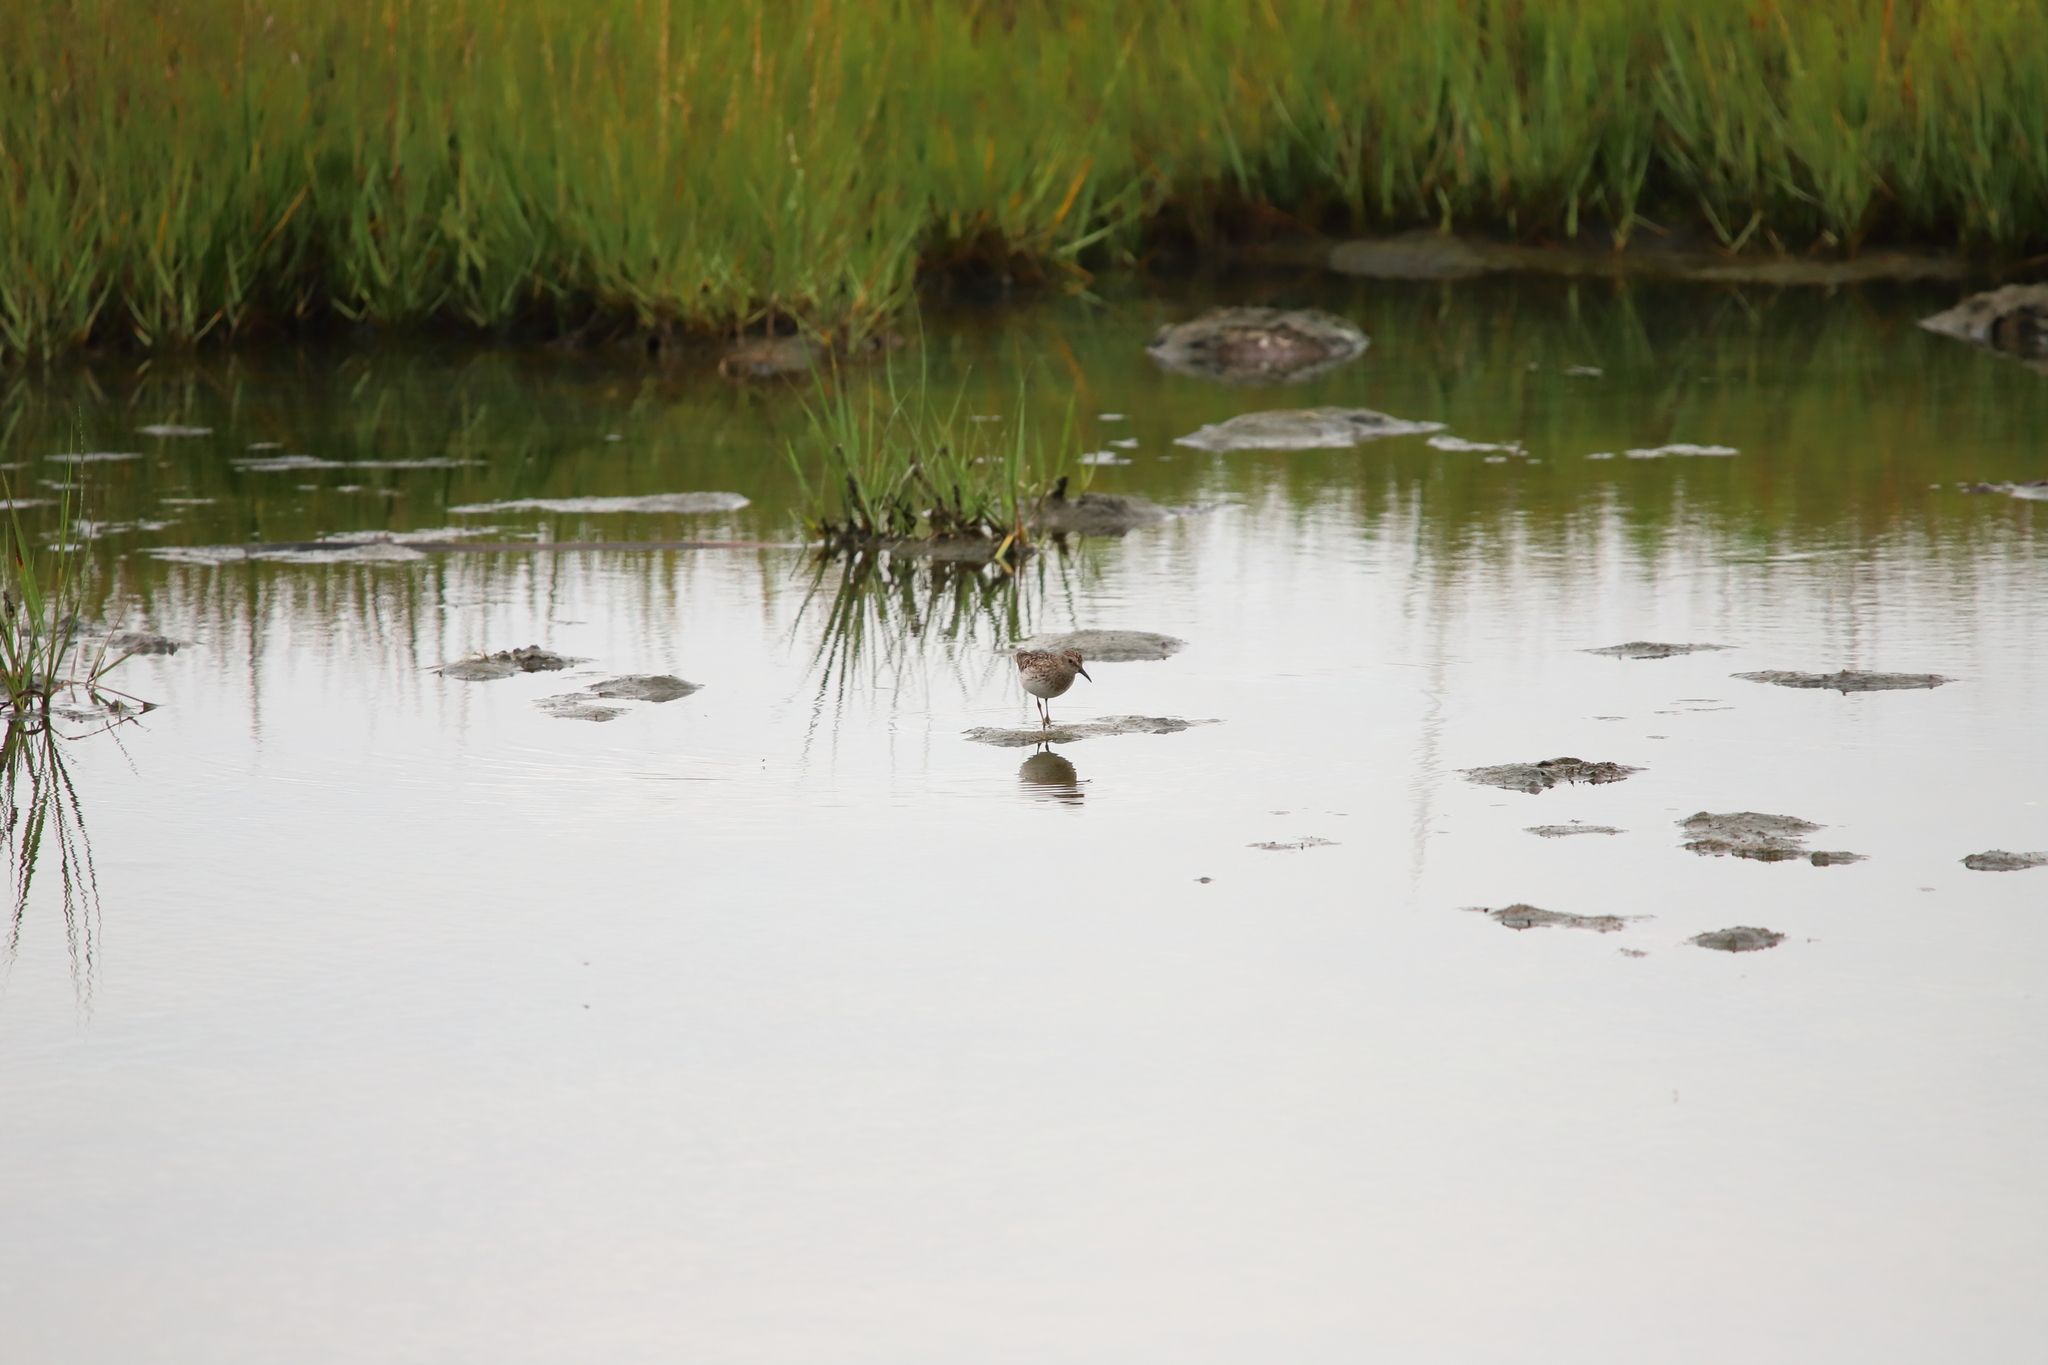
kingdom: Animalia
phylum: Chordata
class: Aves
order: Charadriiformes
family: Scolopacidae
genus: Calidris
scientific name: Calidris minutilla
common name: Least sandpiper
